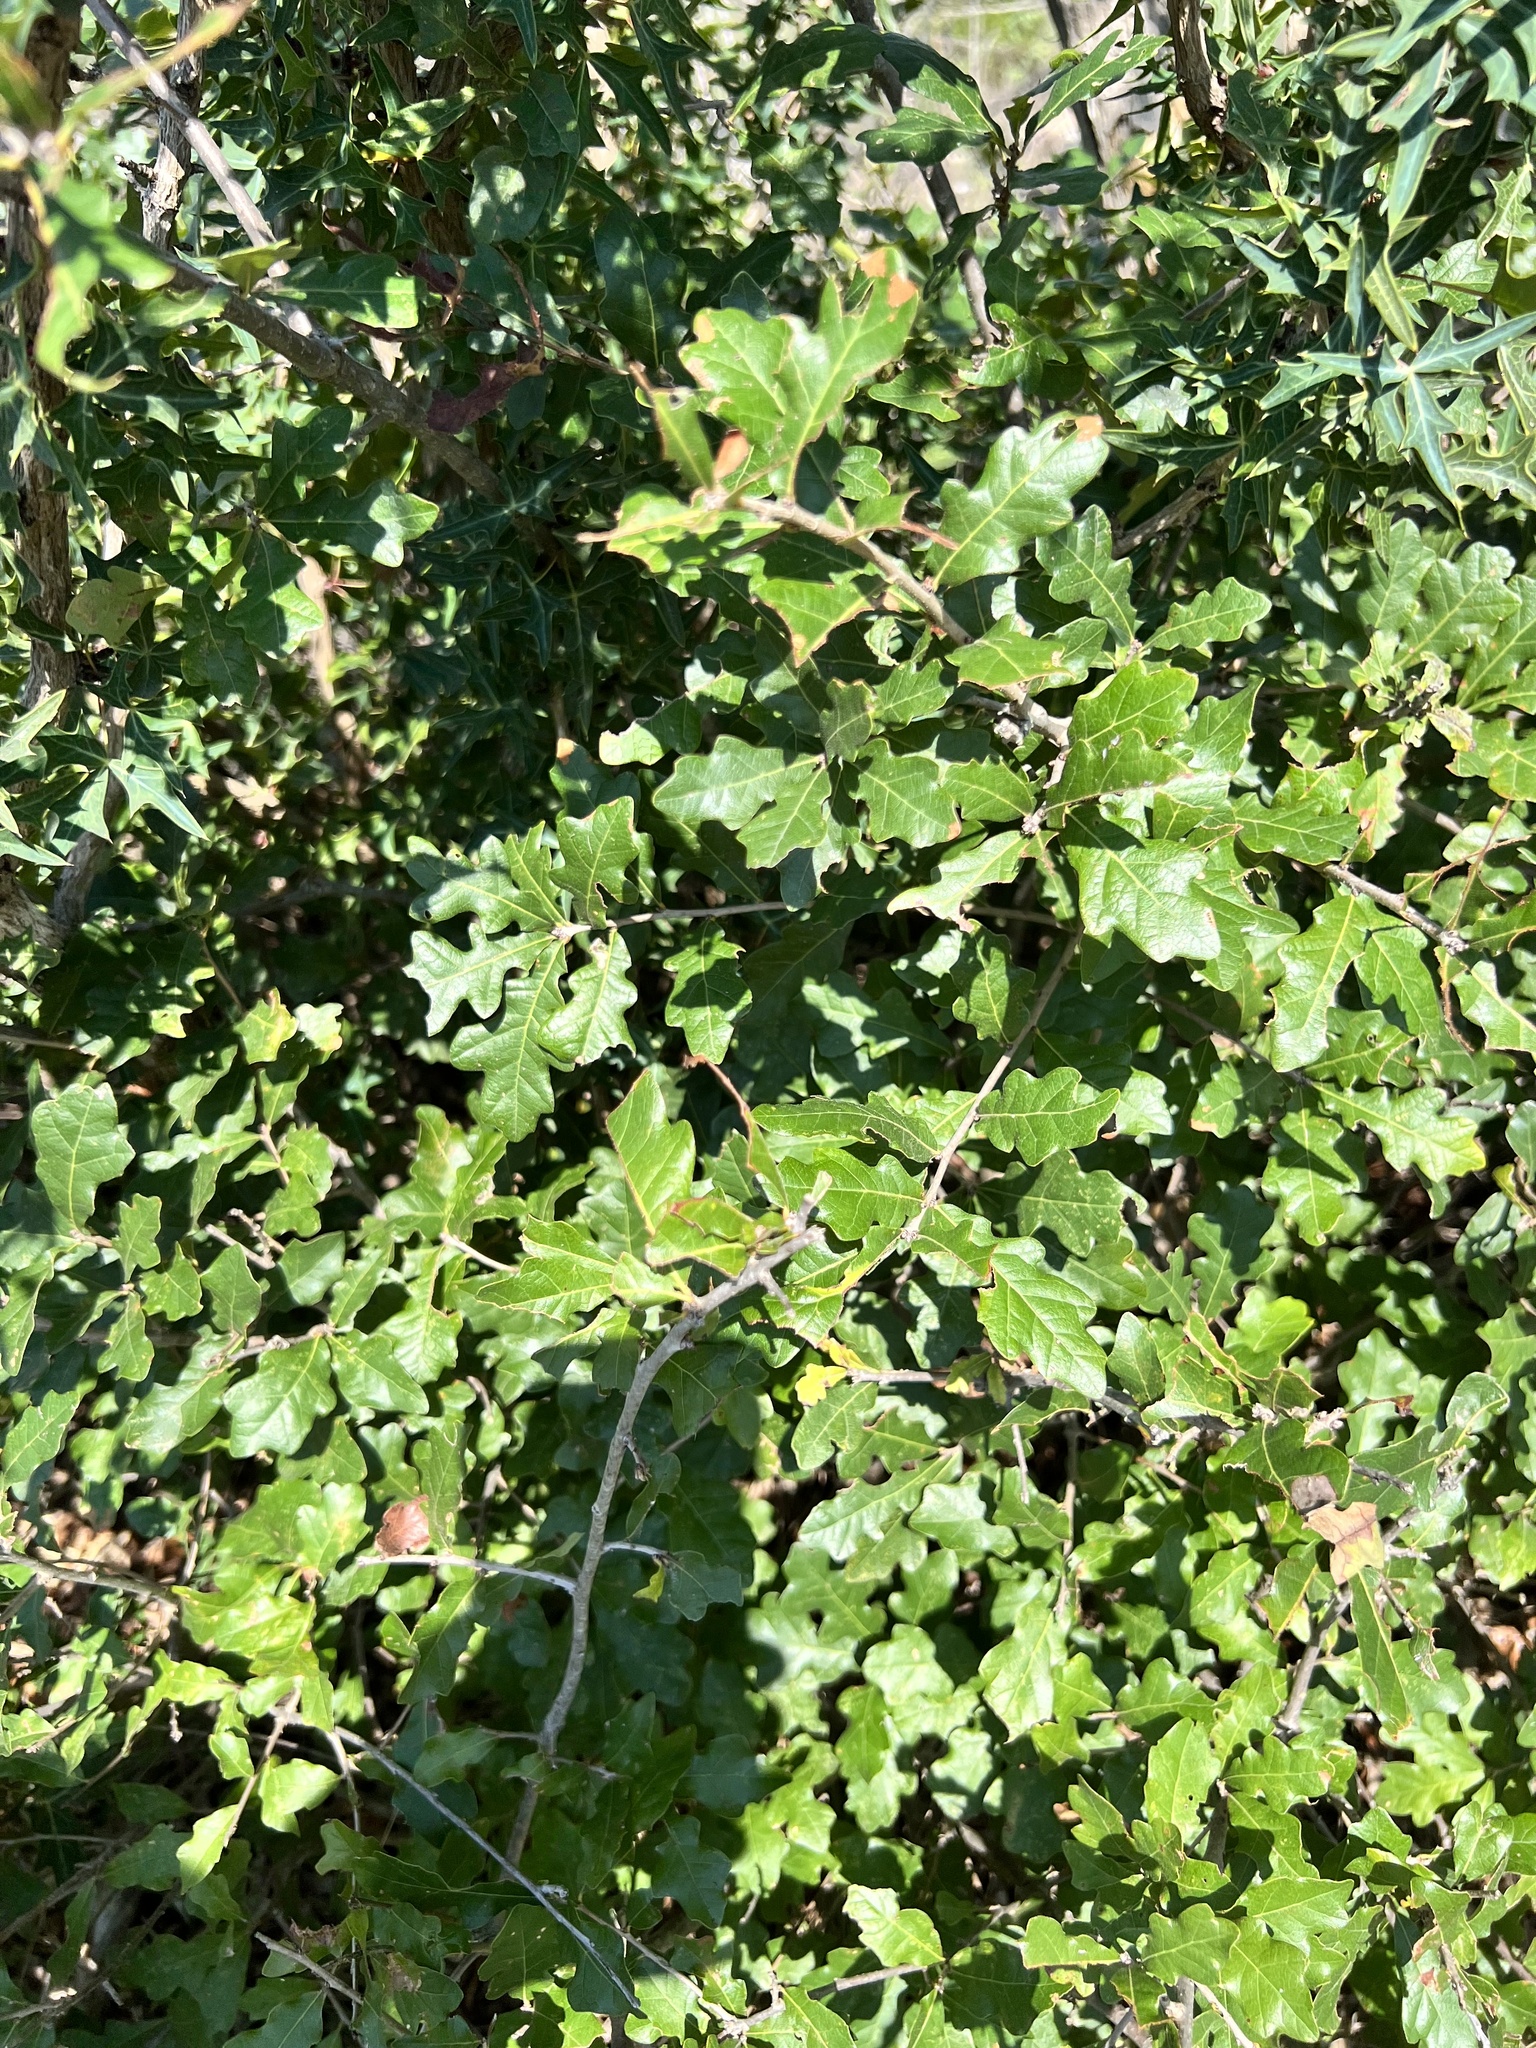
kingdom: Plantae
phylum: Tracheophyta
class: Magnoliopsida
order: Fagales
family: Fagaceae
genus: Quercus
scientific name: Quercus sinuata
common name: Durand oak
